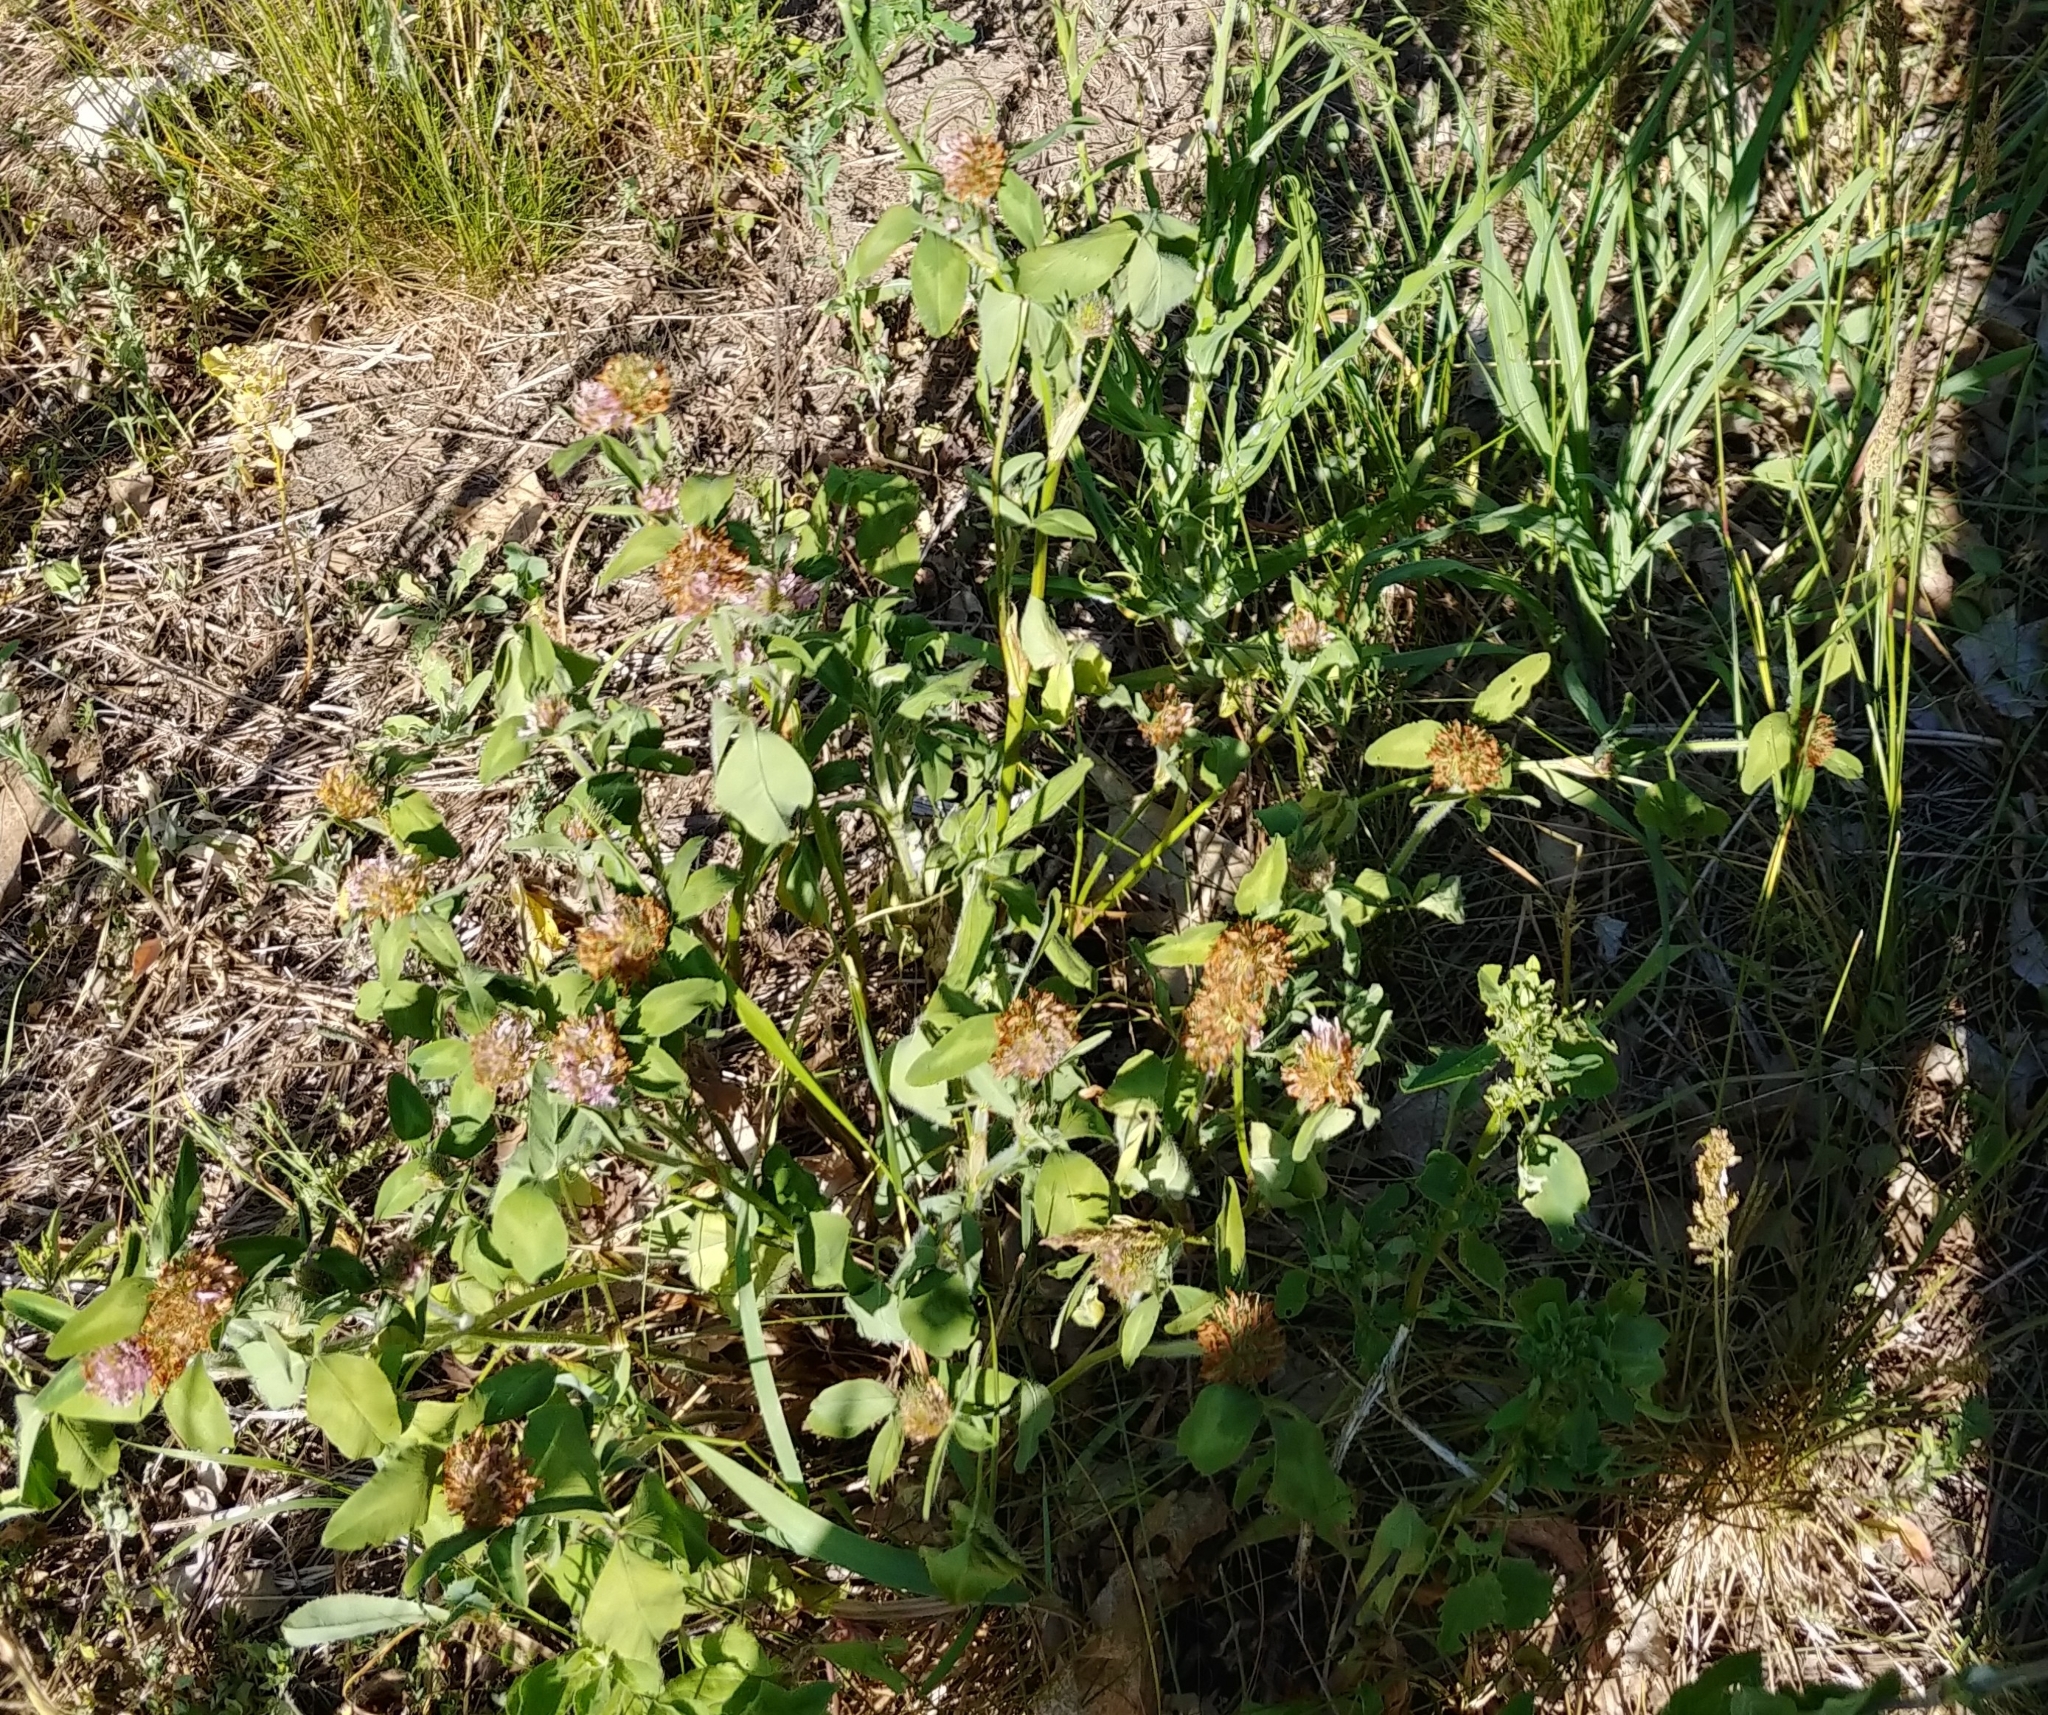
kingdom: Plantae
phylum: Tracheophyta
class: Magnoliopsida
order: Fabales
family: Fabaceae
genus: Trifolium
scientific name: Trifolium pratense
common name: Red clover
